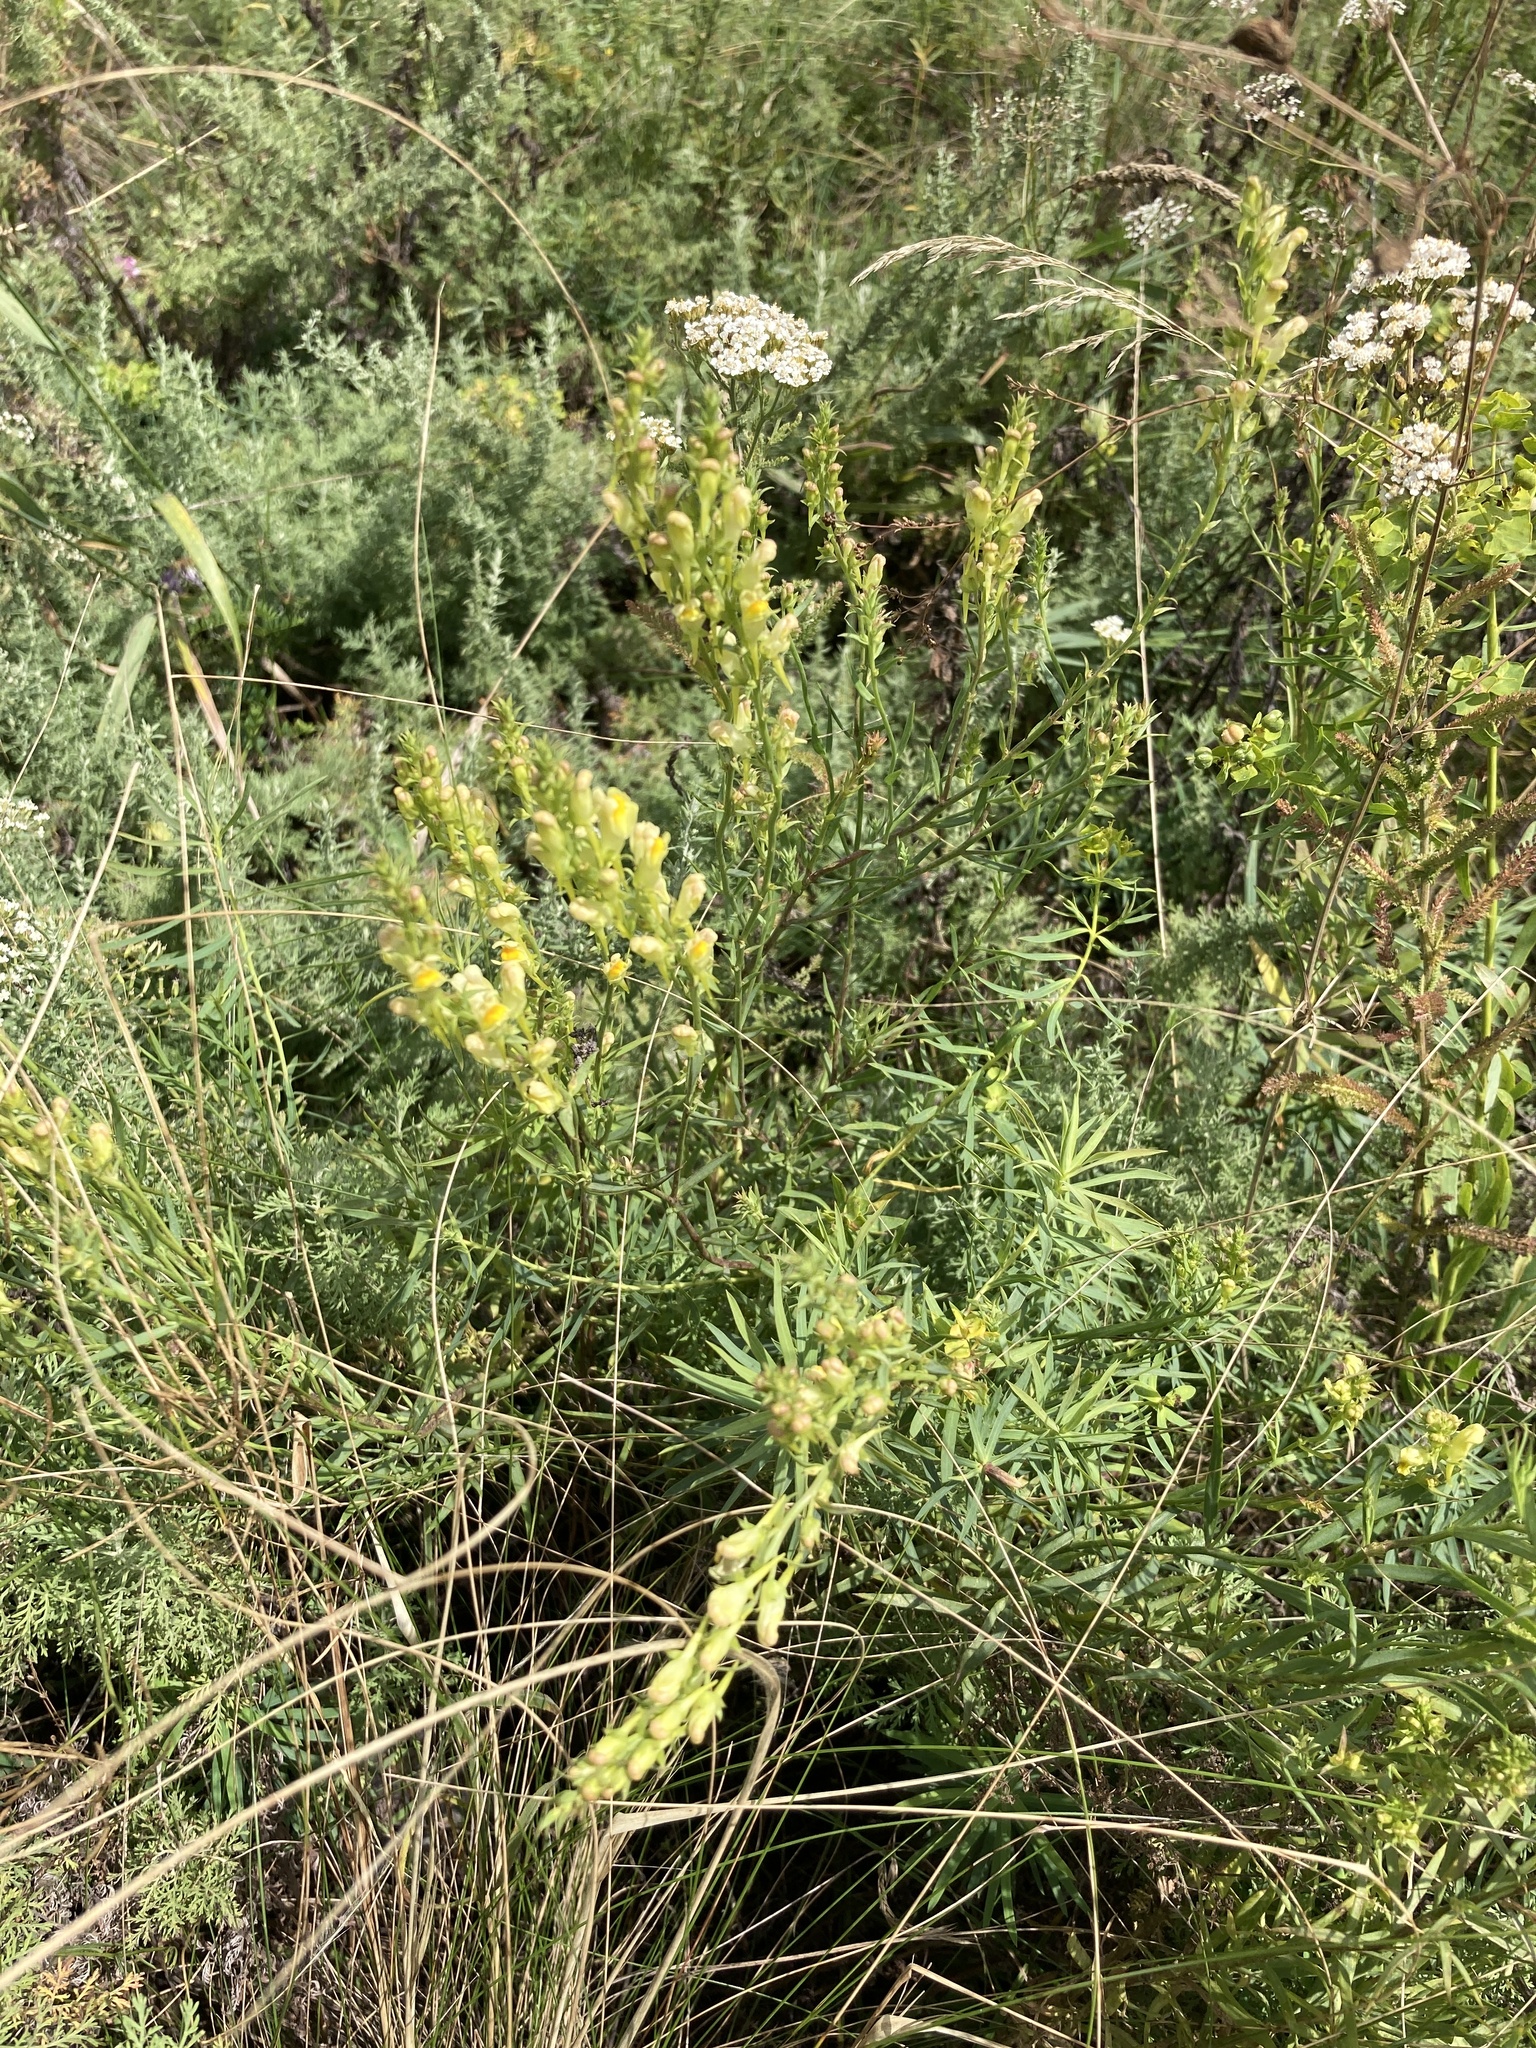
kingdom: Plantae
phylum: Tracheophyta
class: Magnoliopsida
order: Lamiales
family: Plantaginaceae
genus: Linaria
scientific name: Linaria vulgaris
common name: Butter and eggs
